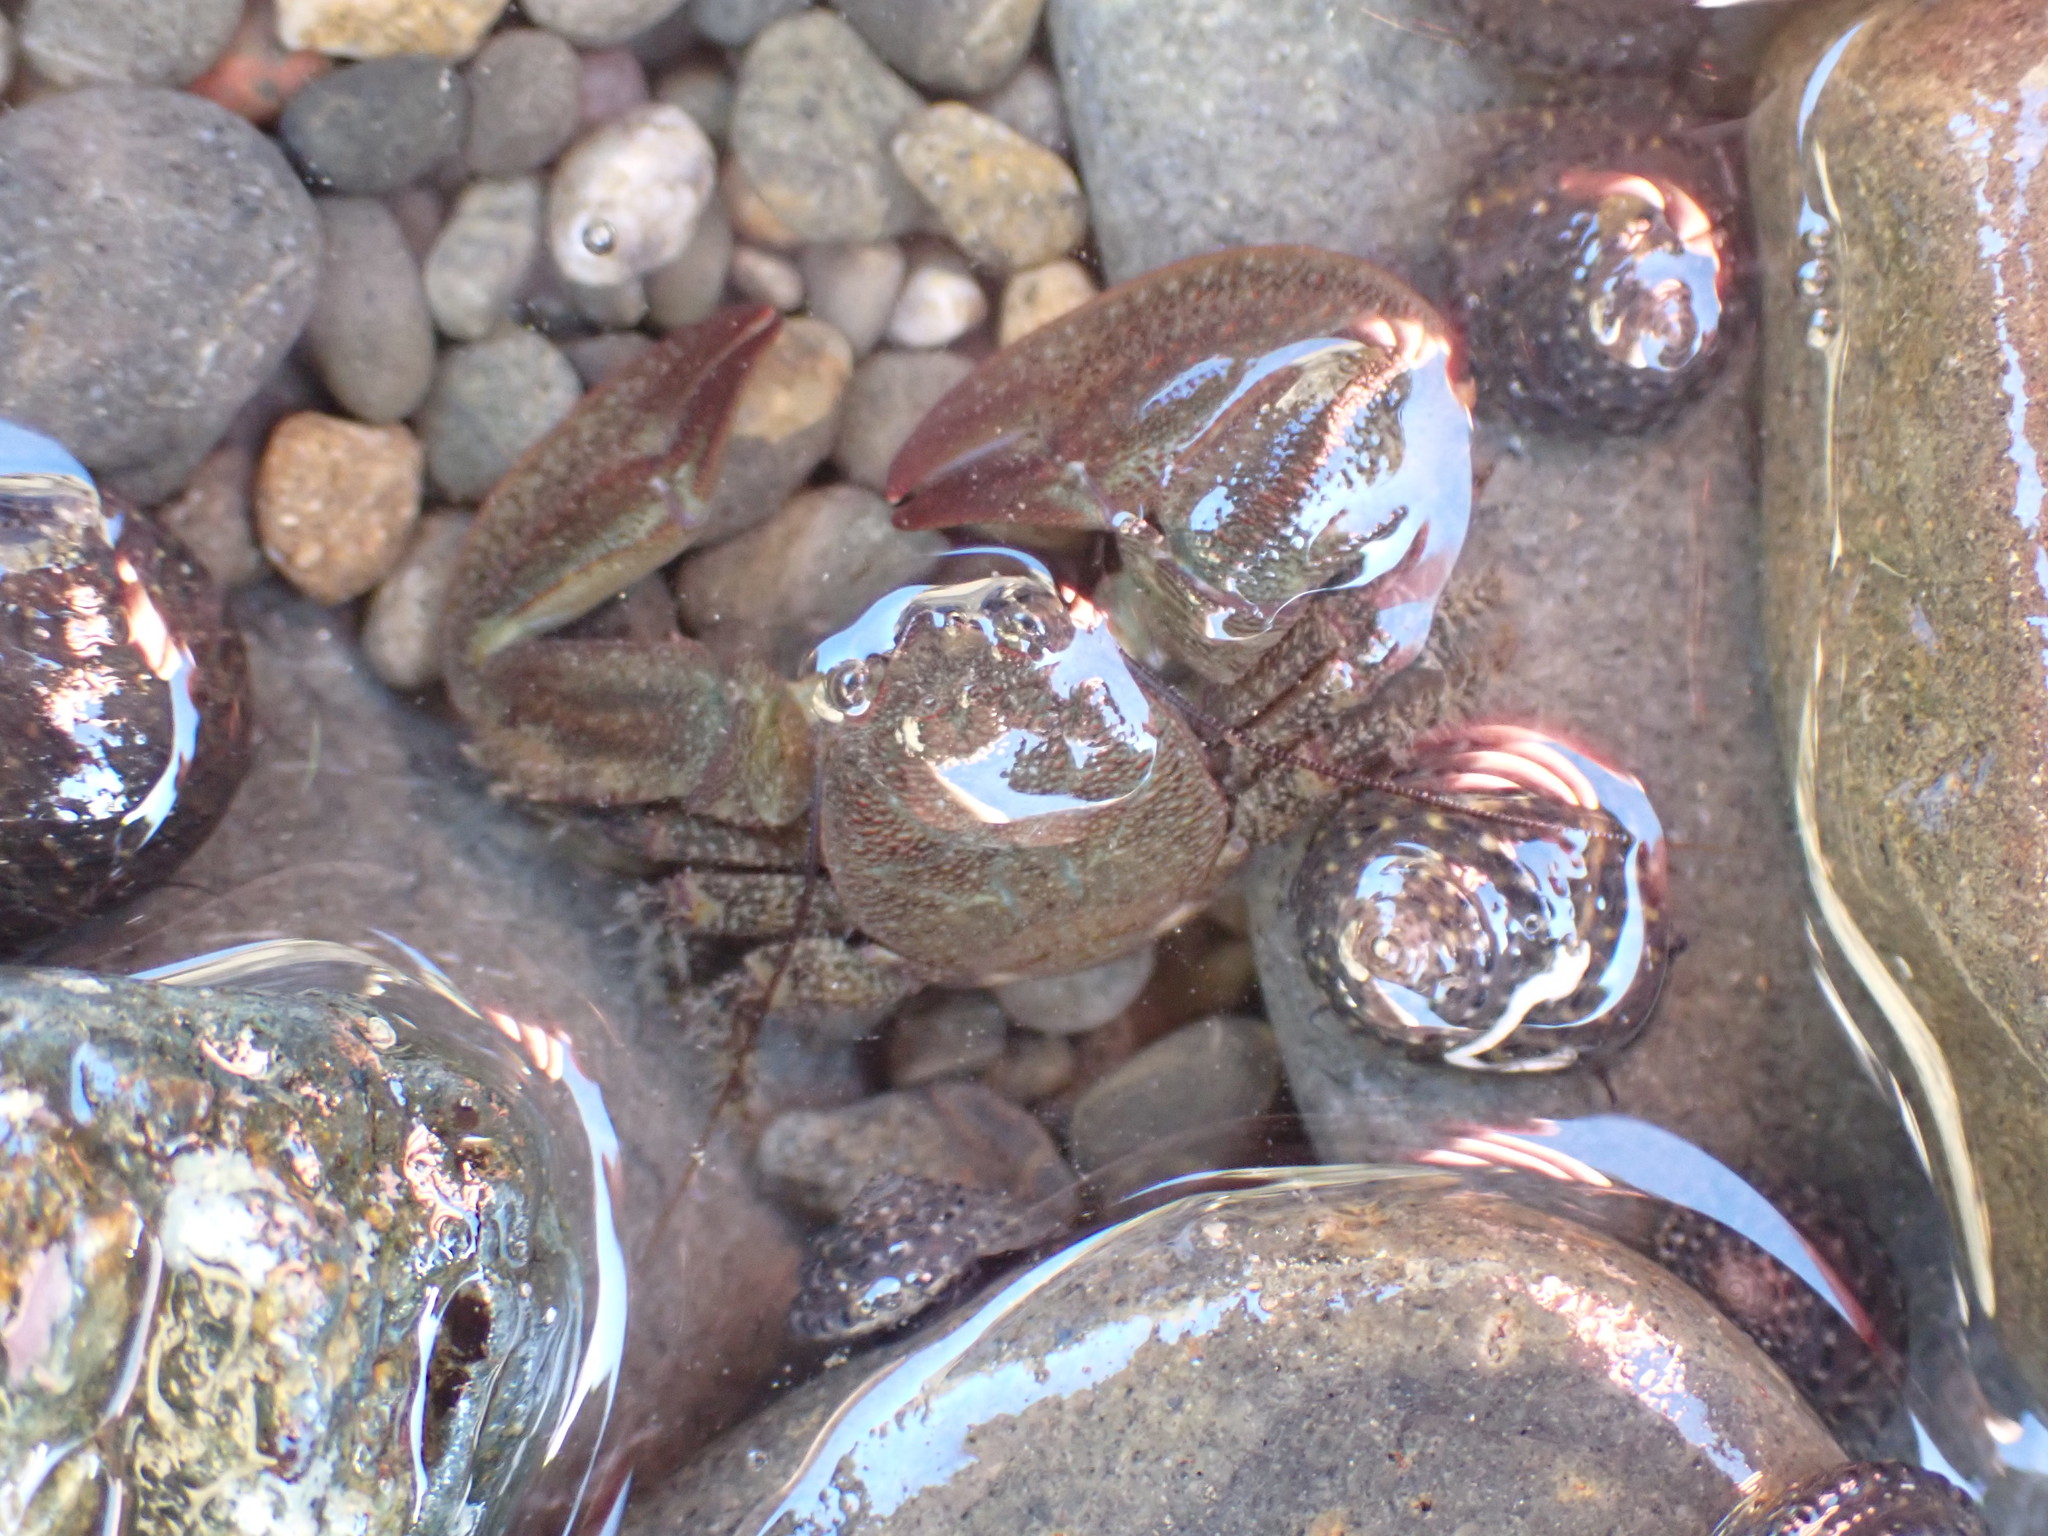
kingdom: Animalia
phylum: Arthropoda
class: Malacostraca
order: Decapoda
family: Porcellanidae
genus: Petrolisthes
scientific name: Petrolisthes elongatus
